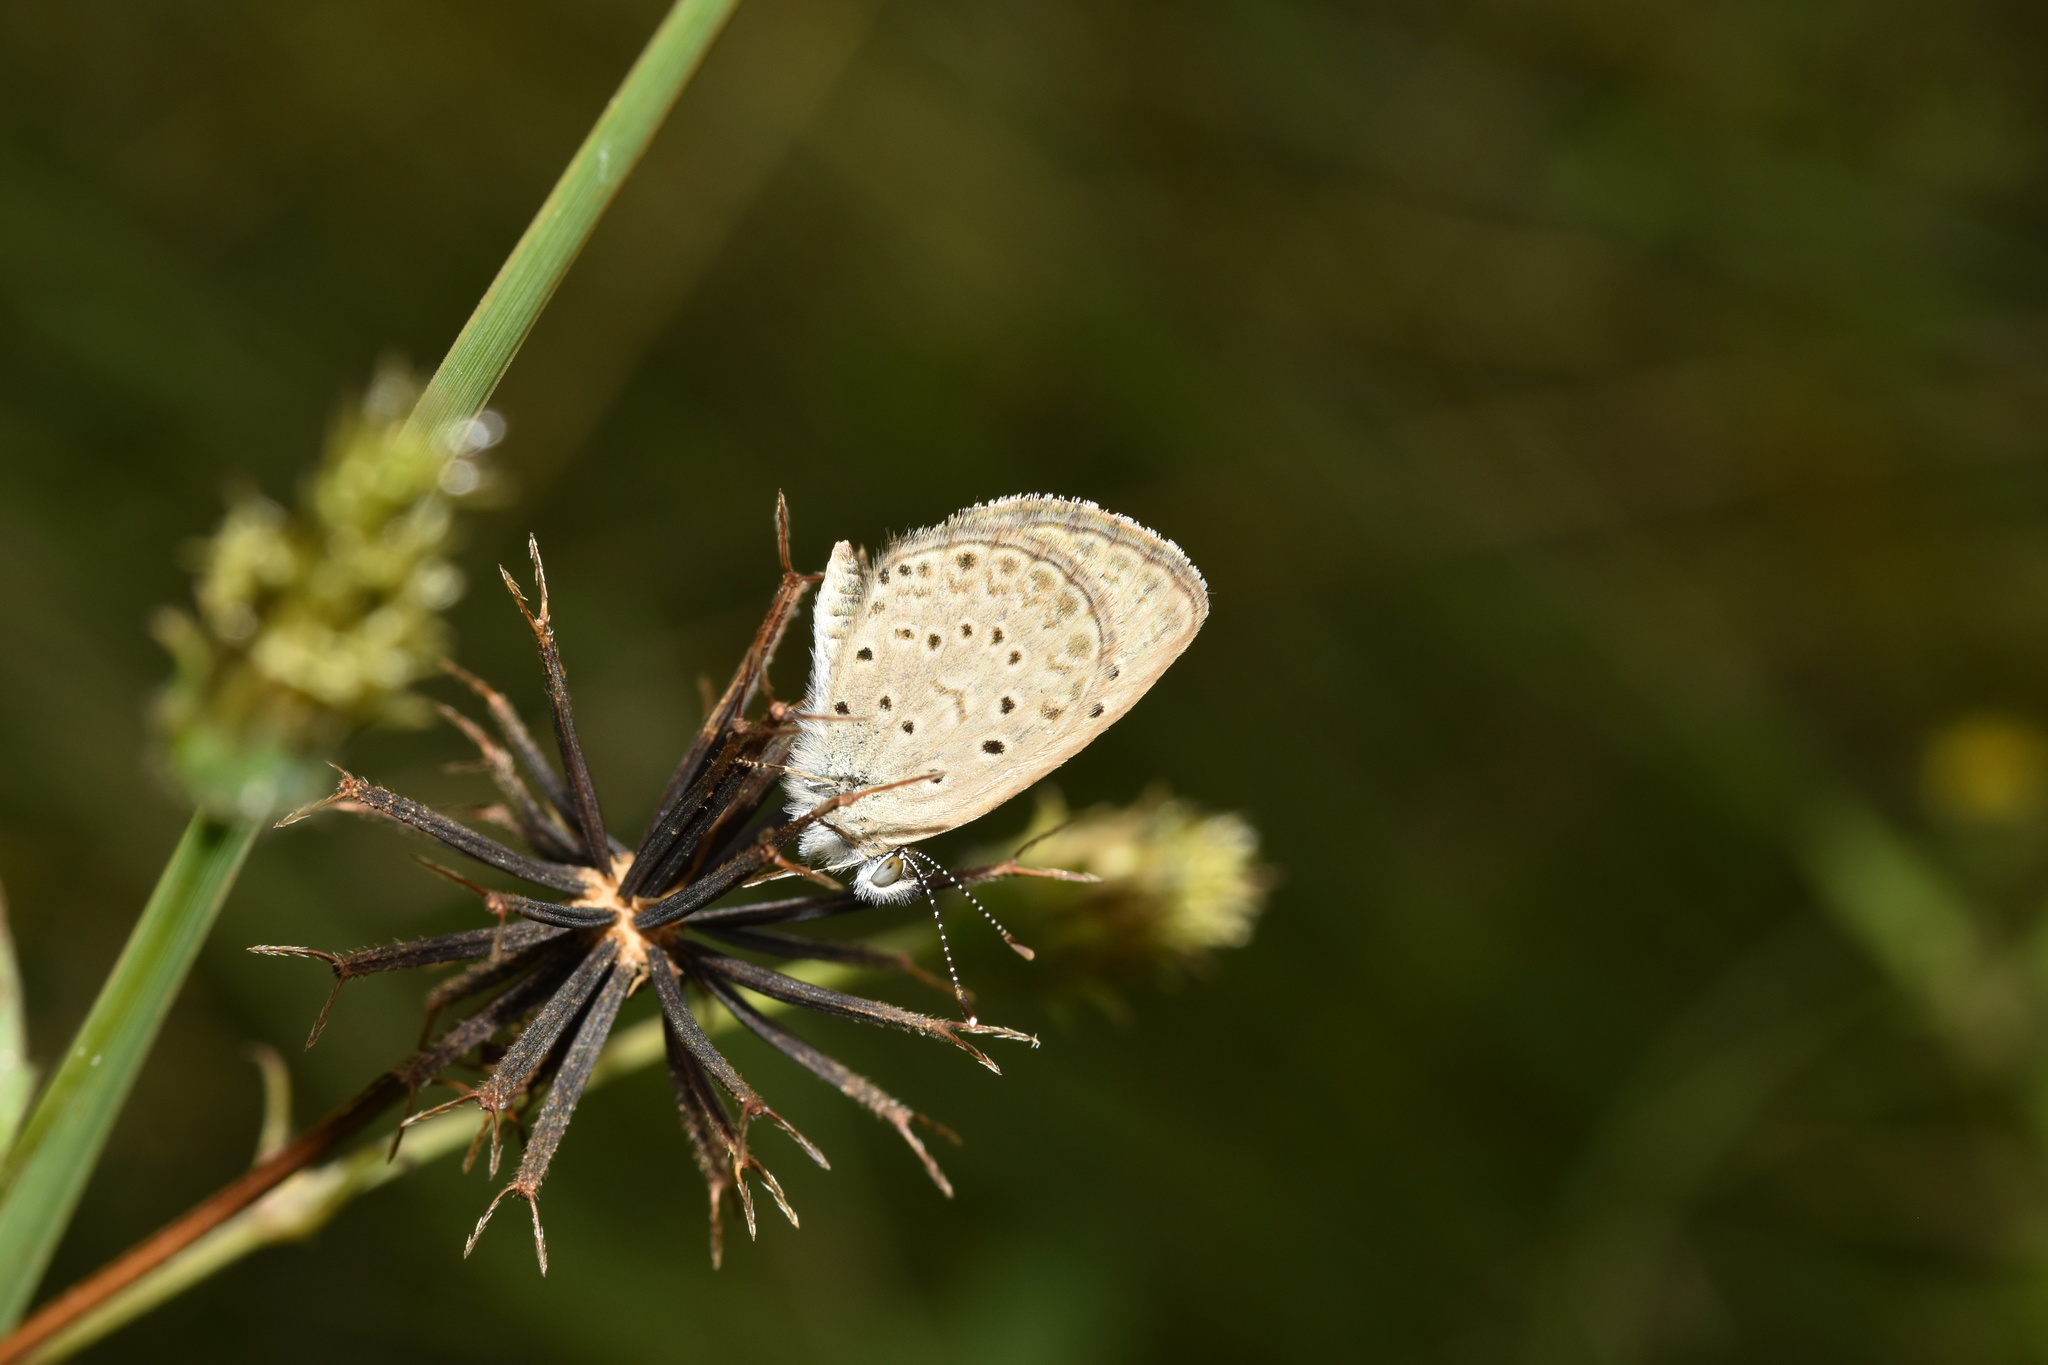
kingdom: Animalia
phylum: Arthropoda
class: Insecta
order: Lepidoptera
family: Lycaenidae
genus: Zizeeria
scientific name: Zizeeria knysna
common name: African grass blue
